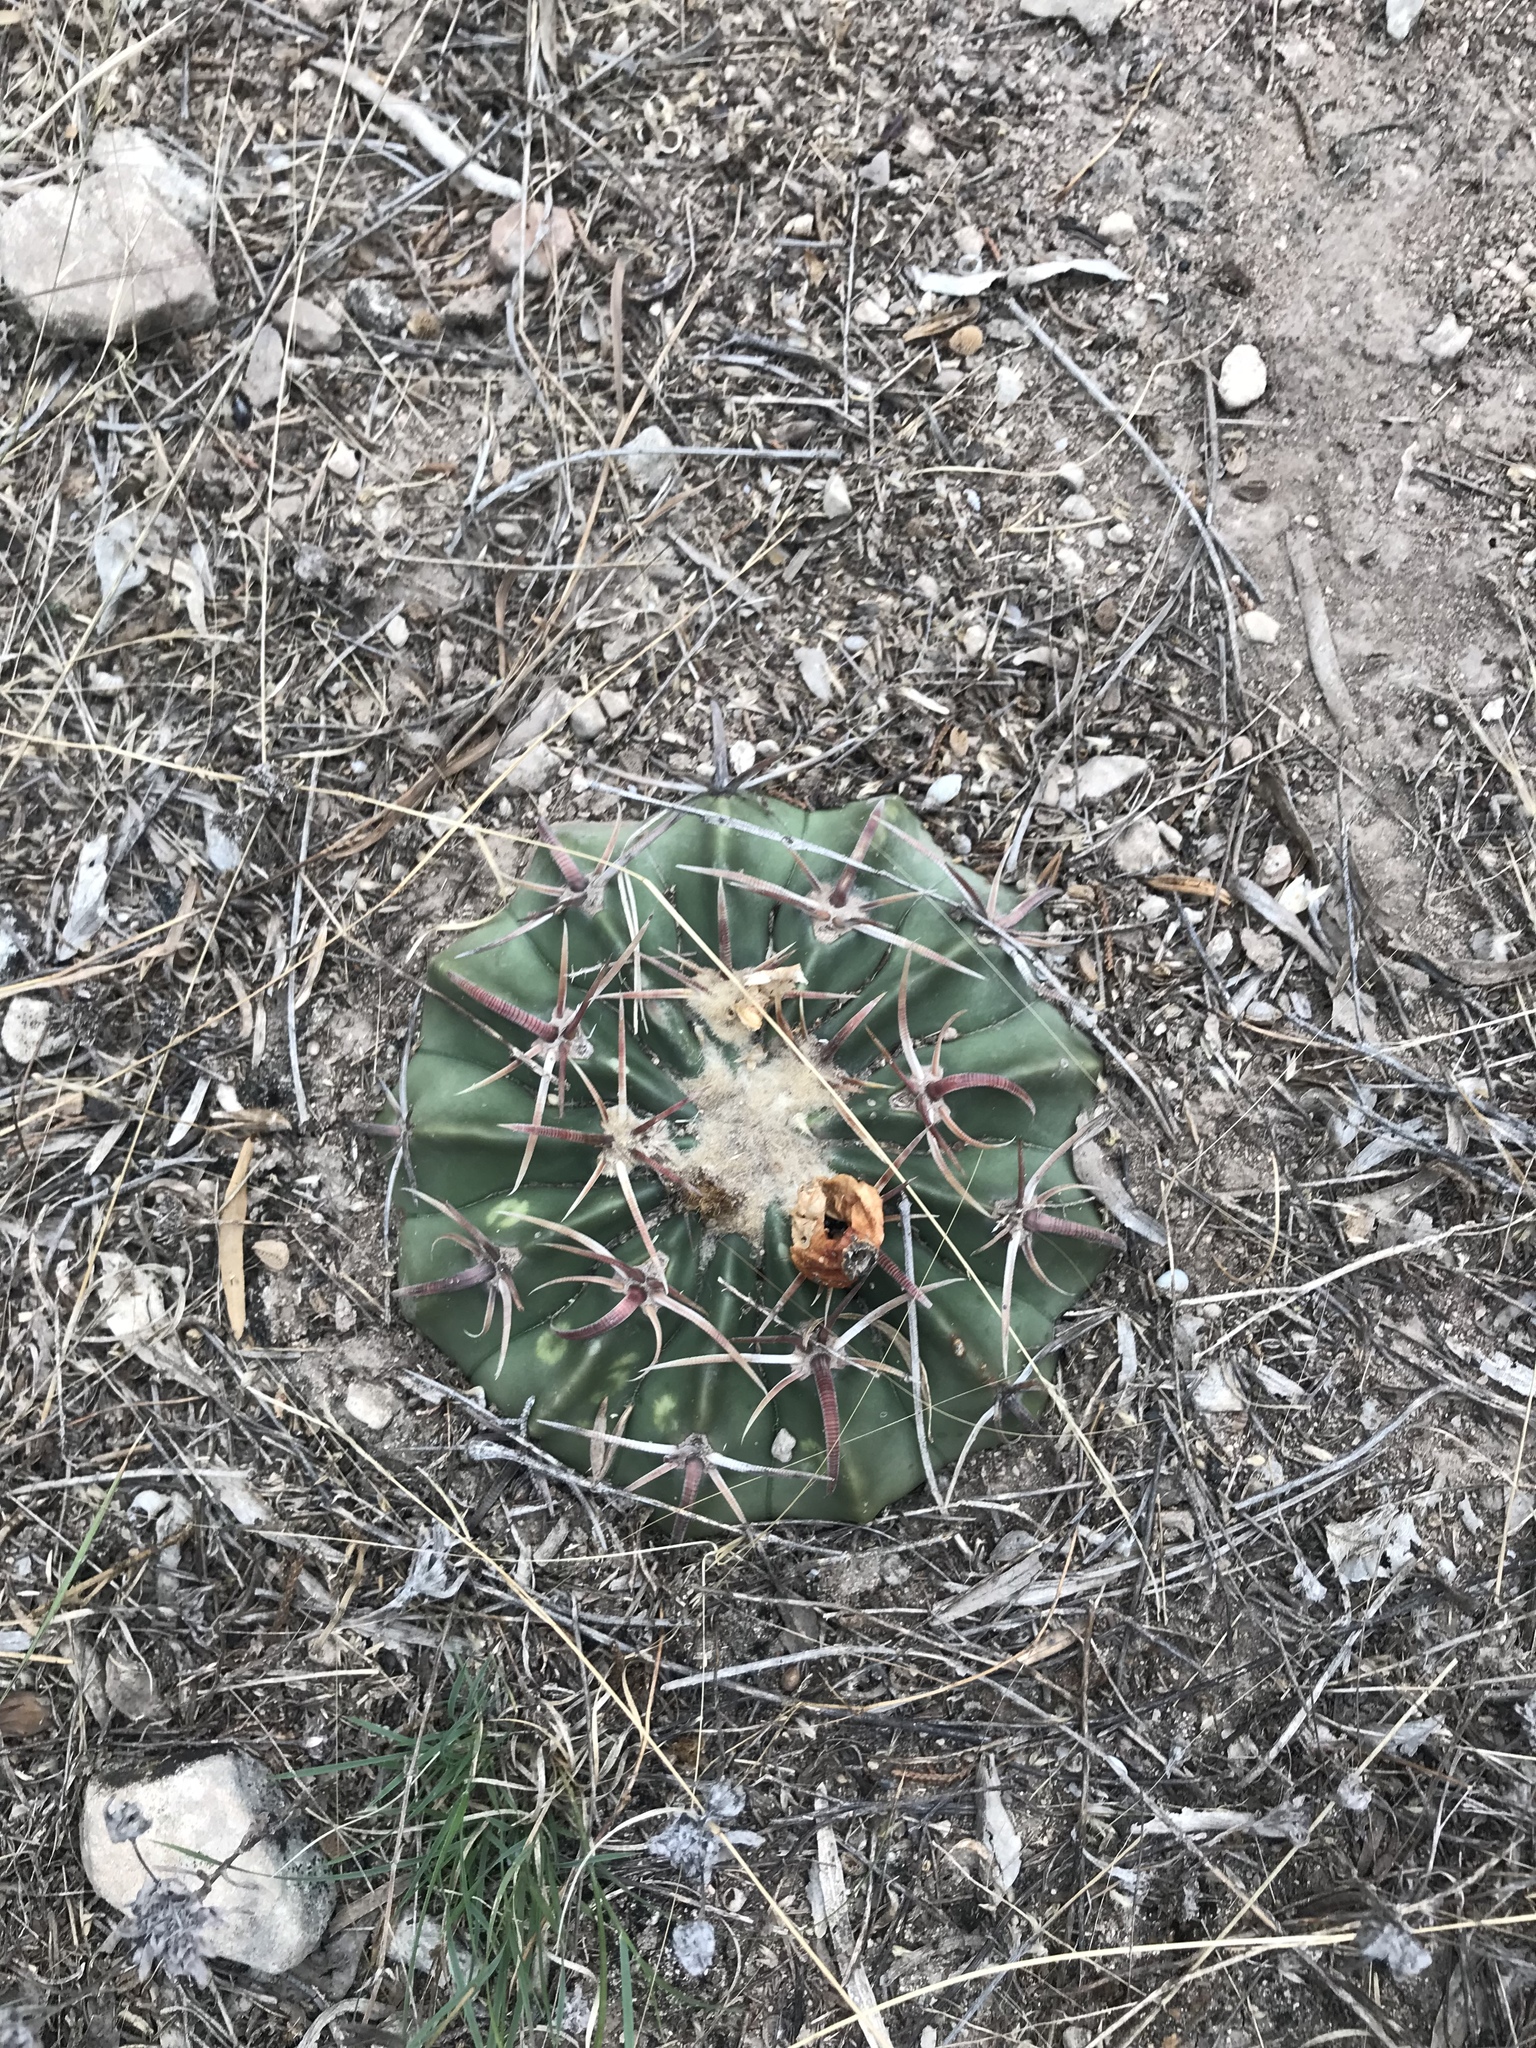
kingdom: Plantae
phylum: Tracheophyta
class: Magnoliopsida
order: Caryophyllales
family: Cactaceae
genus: Echinocactus
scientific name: Echinocactus texensis
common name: Devil's pincushion
